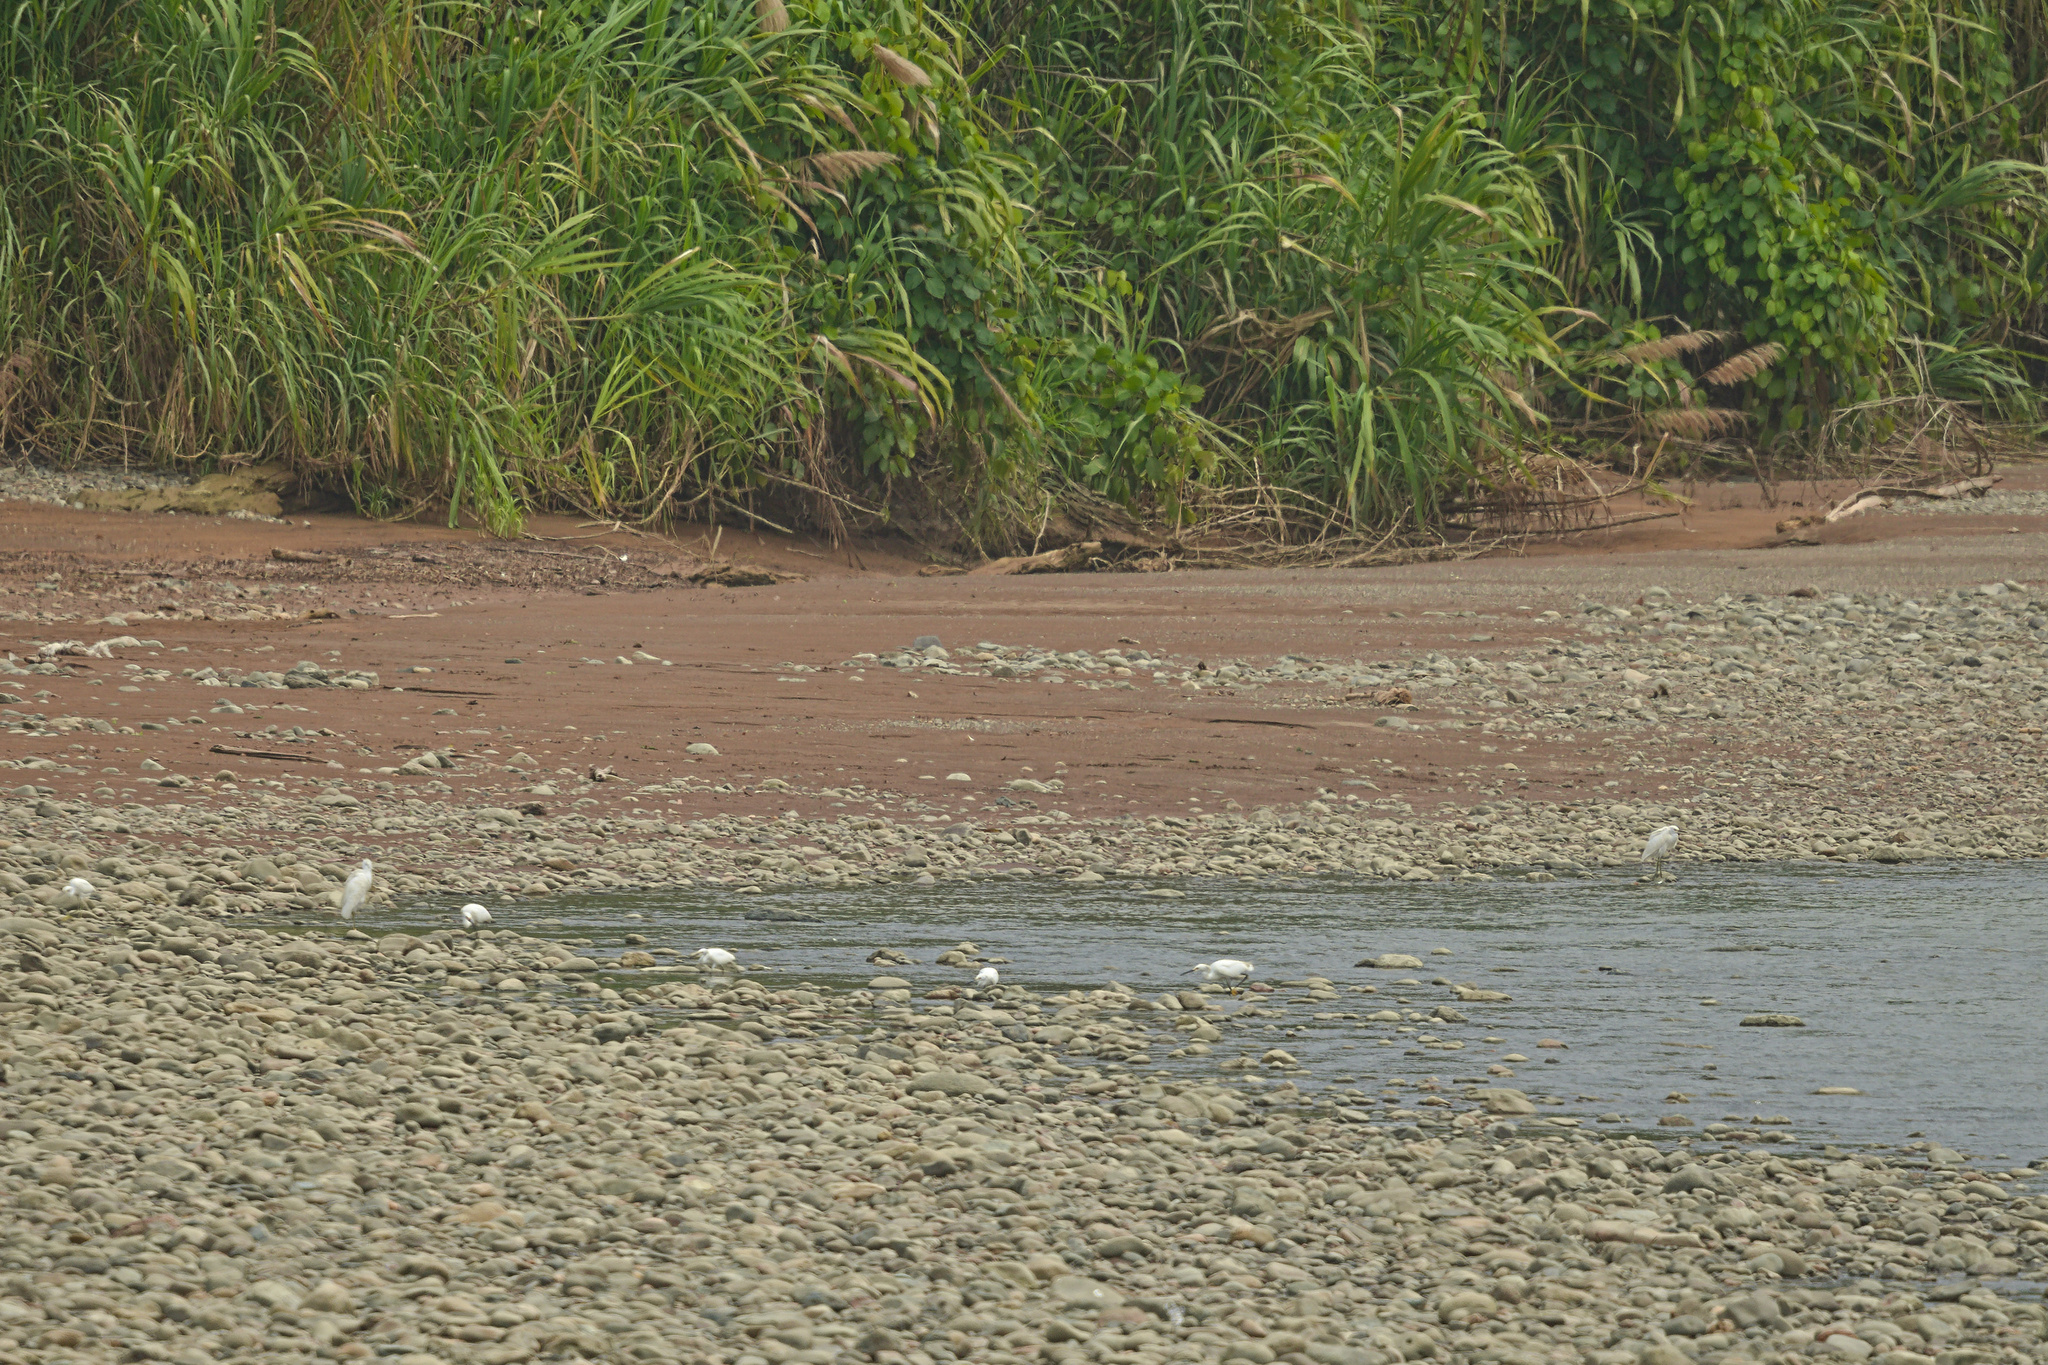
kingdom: Animalia
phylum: Chordata
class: Aves
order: Pelecaniformes
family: Ardeidae
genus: Egretta
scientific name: Egretta thula
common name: Snowy egret
